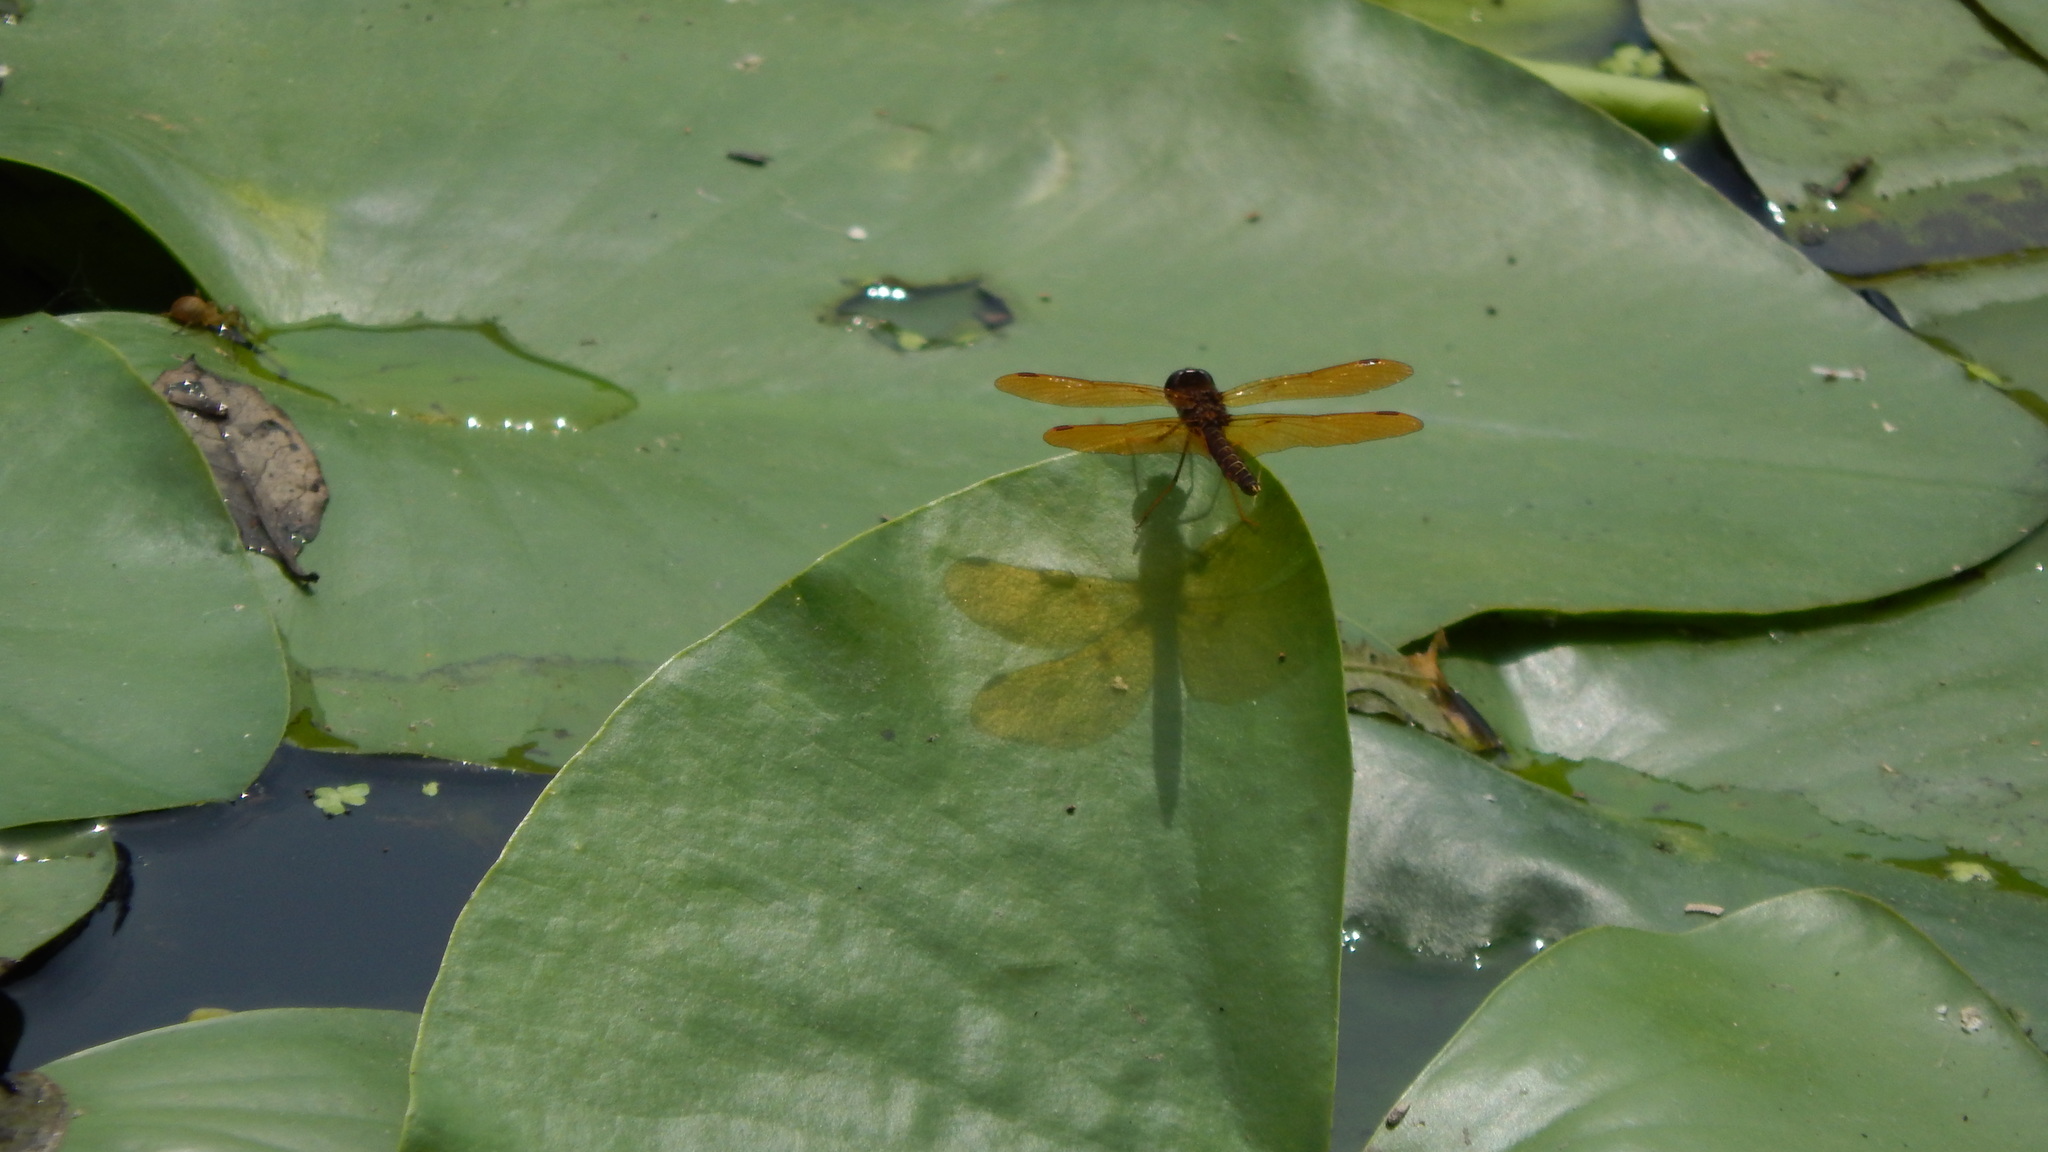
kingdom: Animalia
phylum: Arthropoda
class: Insecta
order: Odonata
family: Libellulidae
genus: Perithemis
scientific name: Perithemis tenera
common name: Eastern amberwing
